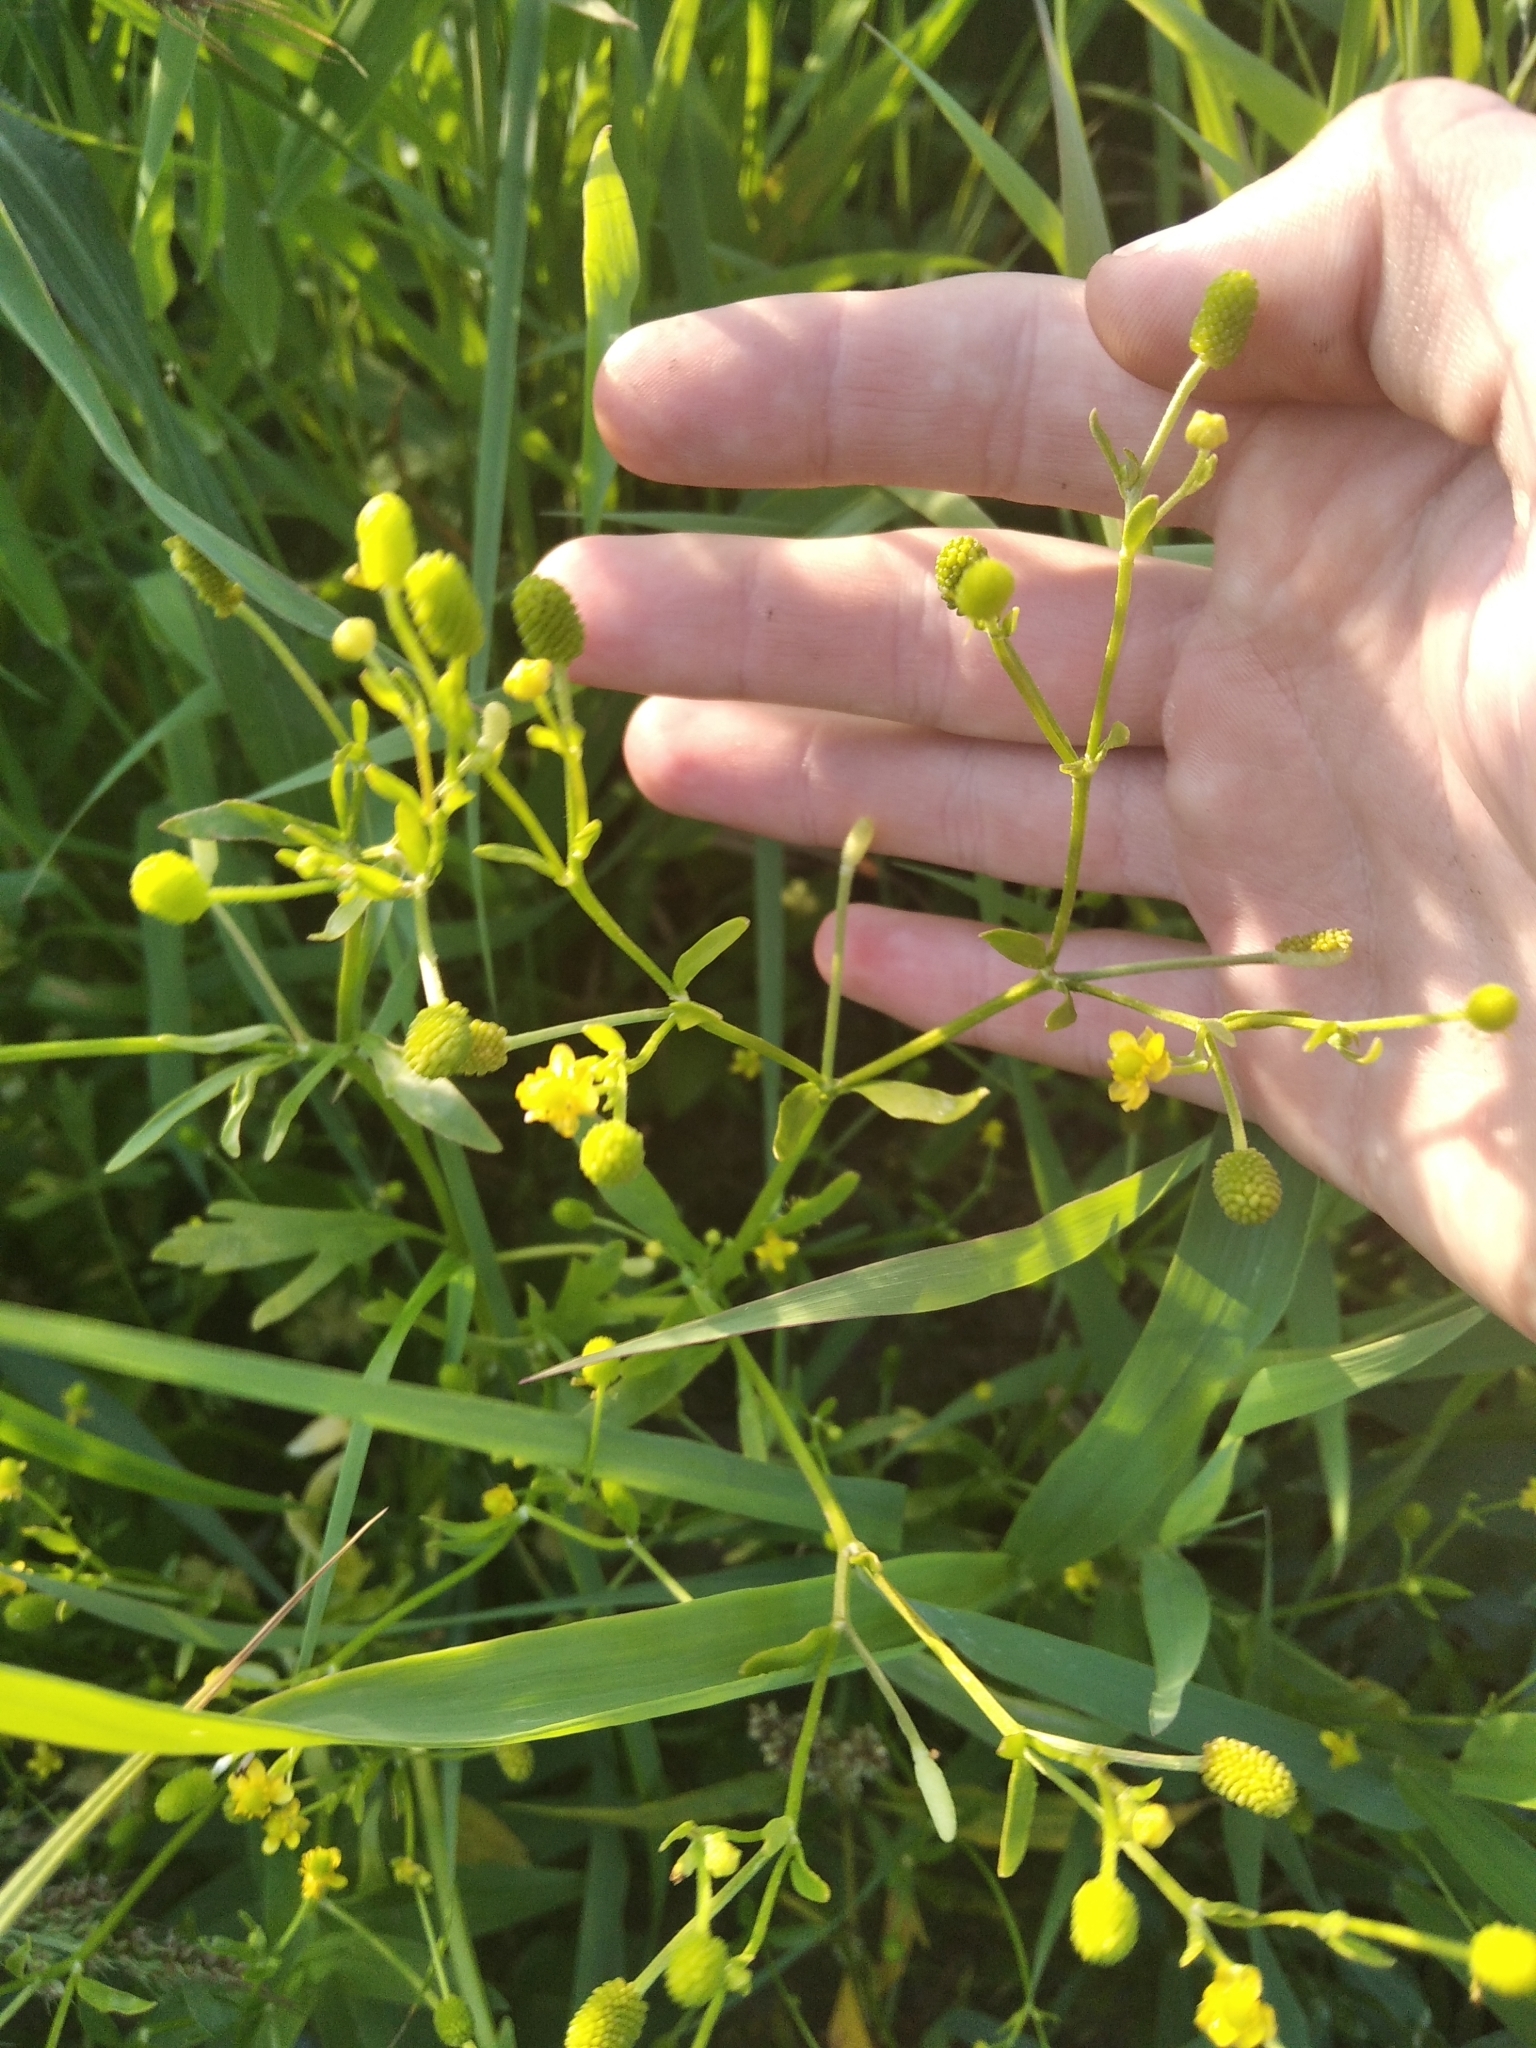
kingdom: Plantae
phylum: Tracheophyta
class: Magnoliopsida
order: Ranunculales
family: Ranunculaceae
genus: Ranunculus
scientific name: Ranunculus sceleratus
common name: Celery-leaved buttercup
